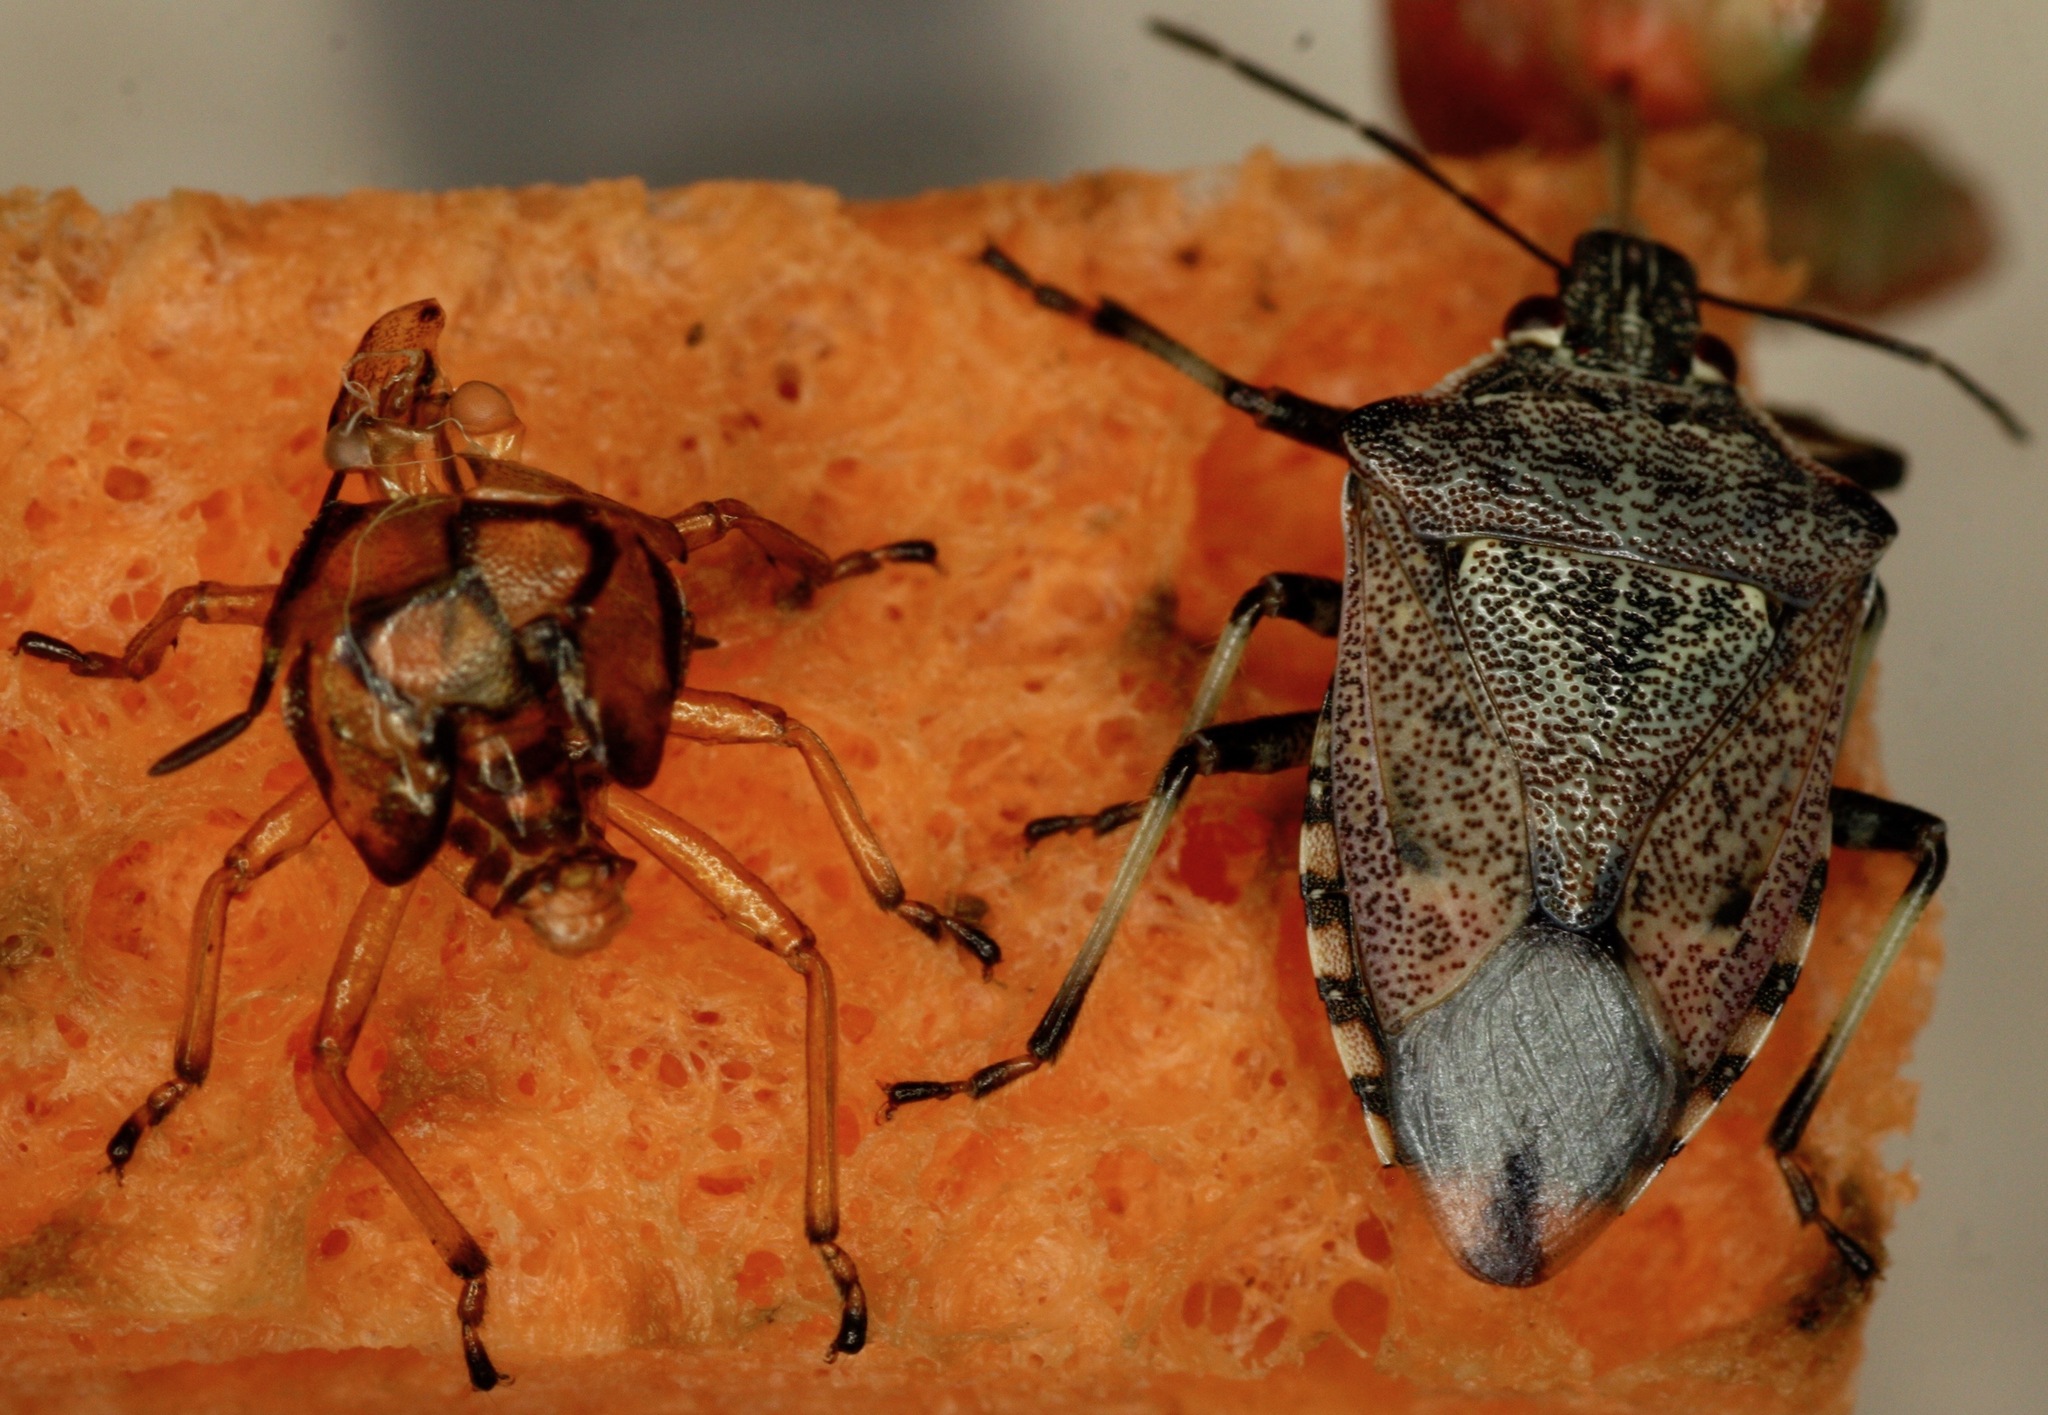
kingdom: Animalia
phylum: Arthropoda
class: Insecta
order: Hemiptera
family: Pentatomidae
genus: Podisus
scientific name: Podisus serieventris
